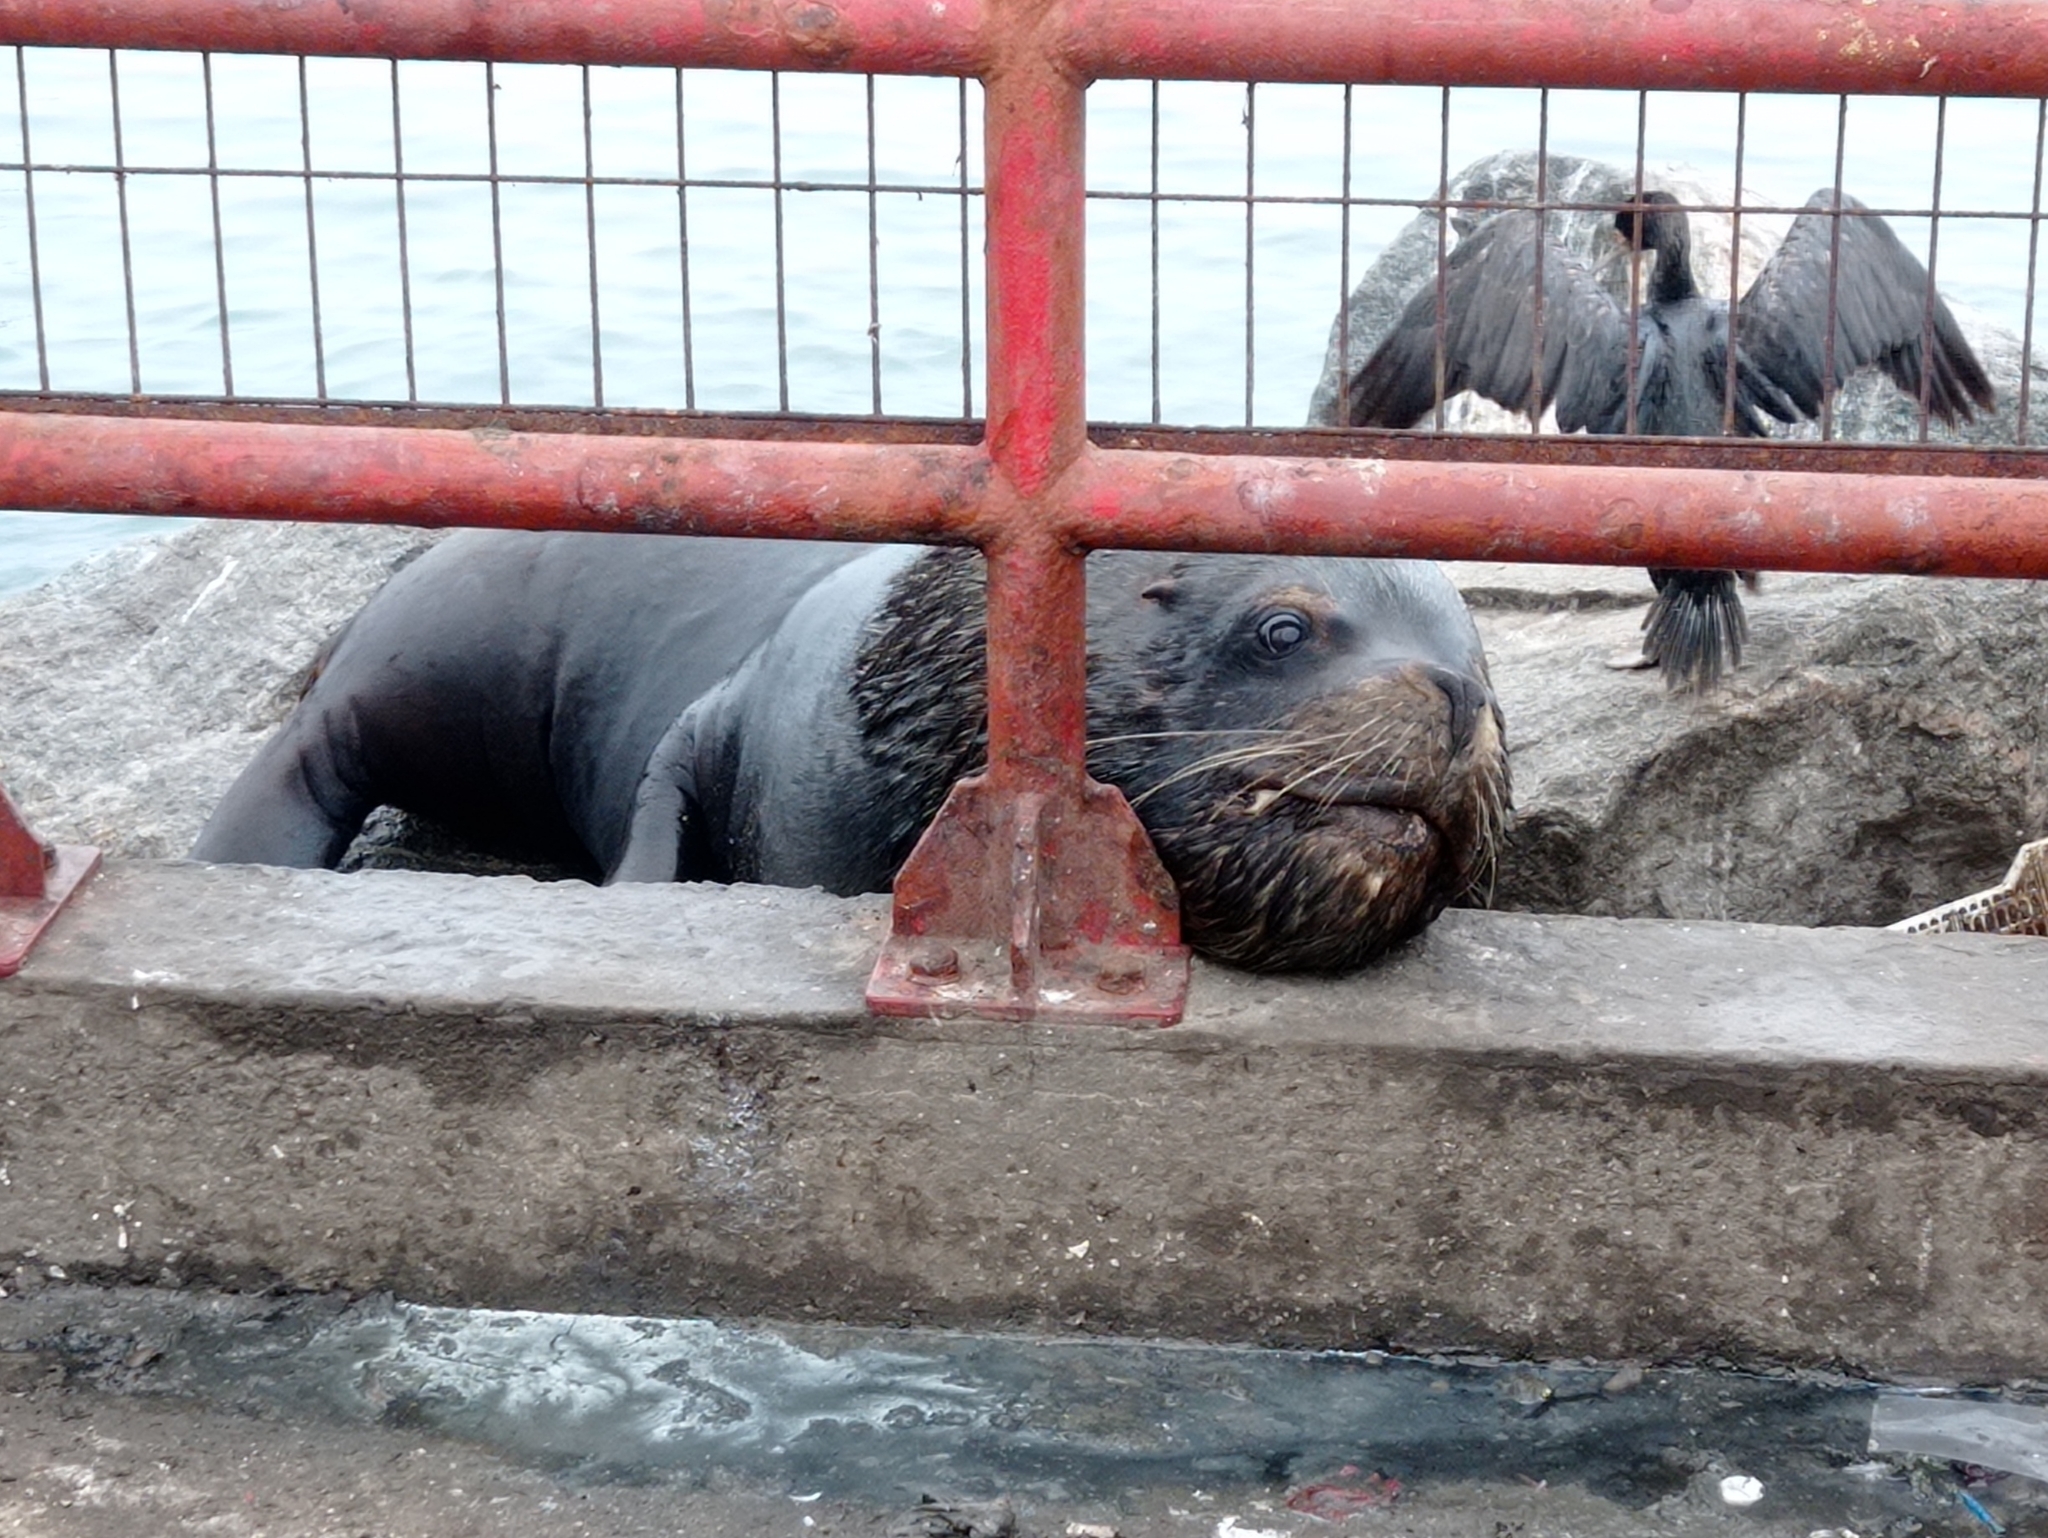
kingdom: Animalia
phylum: Chordata
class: Mammalia
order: Carnivora
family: Otariidae
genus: Otaria
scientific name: Otaria byronia
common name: South american sea lion
